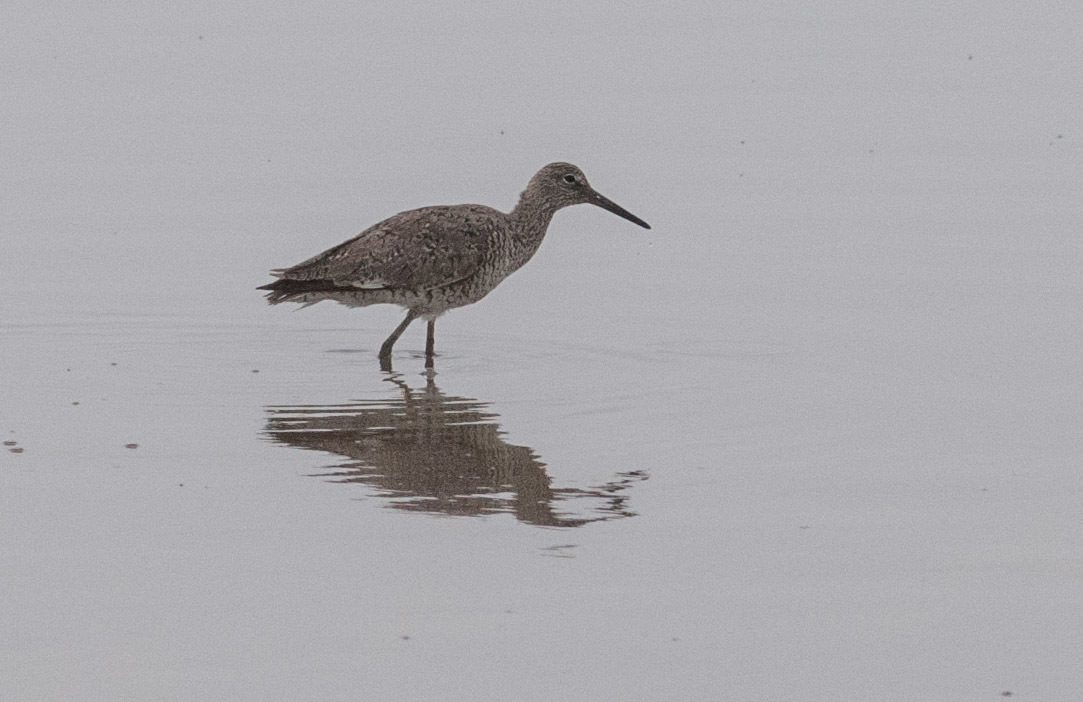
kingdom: Animalia
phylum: Chordata
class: Aves
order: Charadriiformes
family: Scolopacidae
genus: Tringa
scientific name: Tringa semipalmata
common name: Willet
